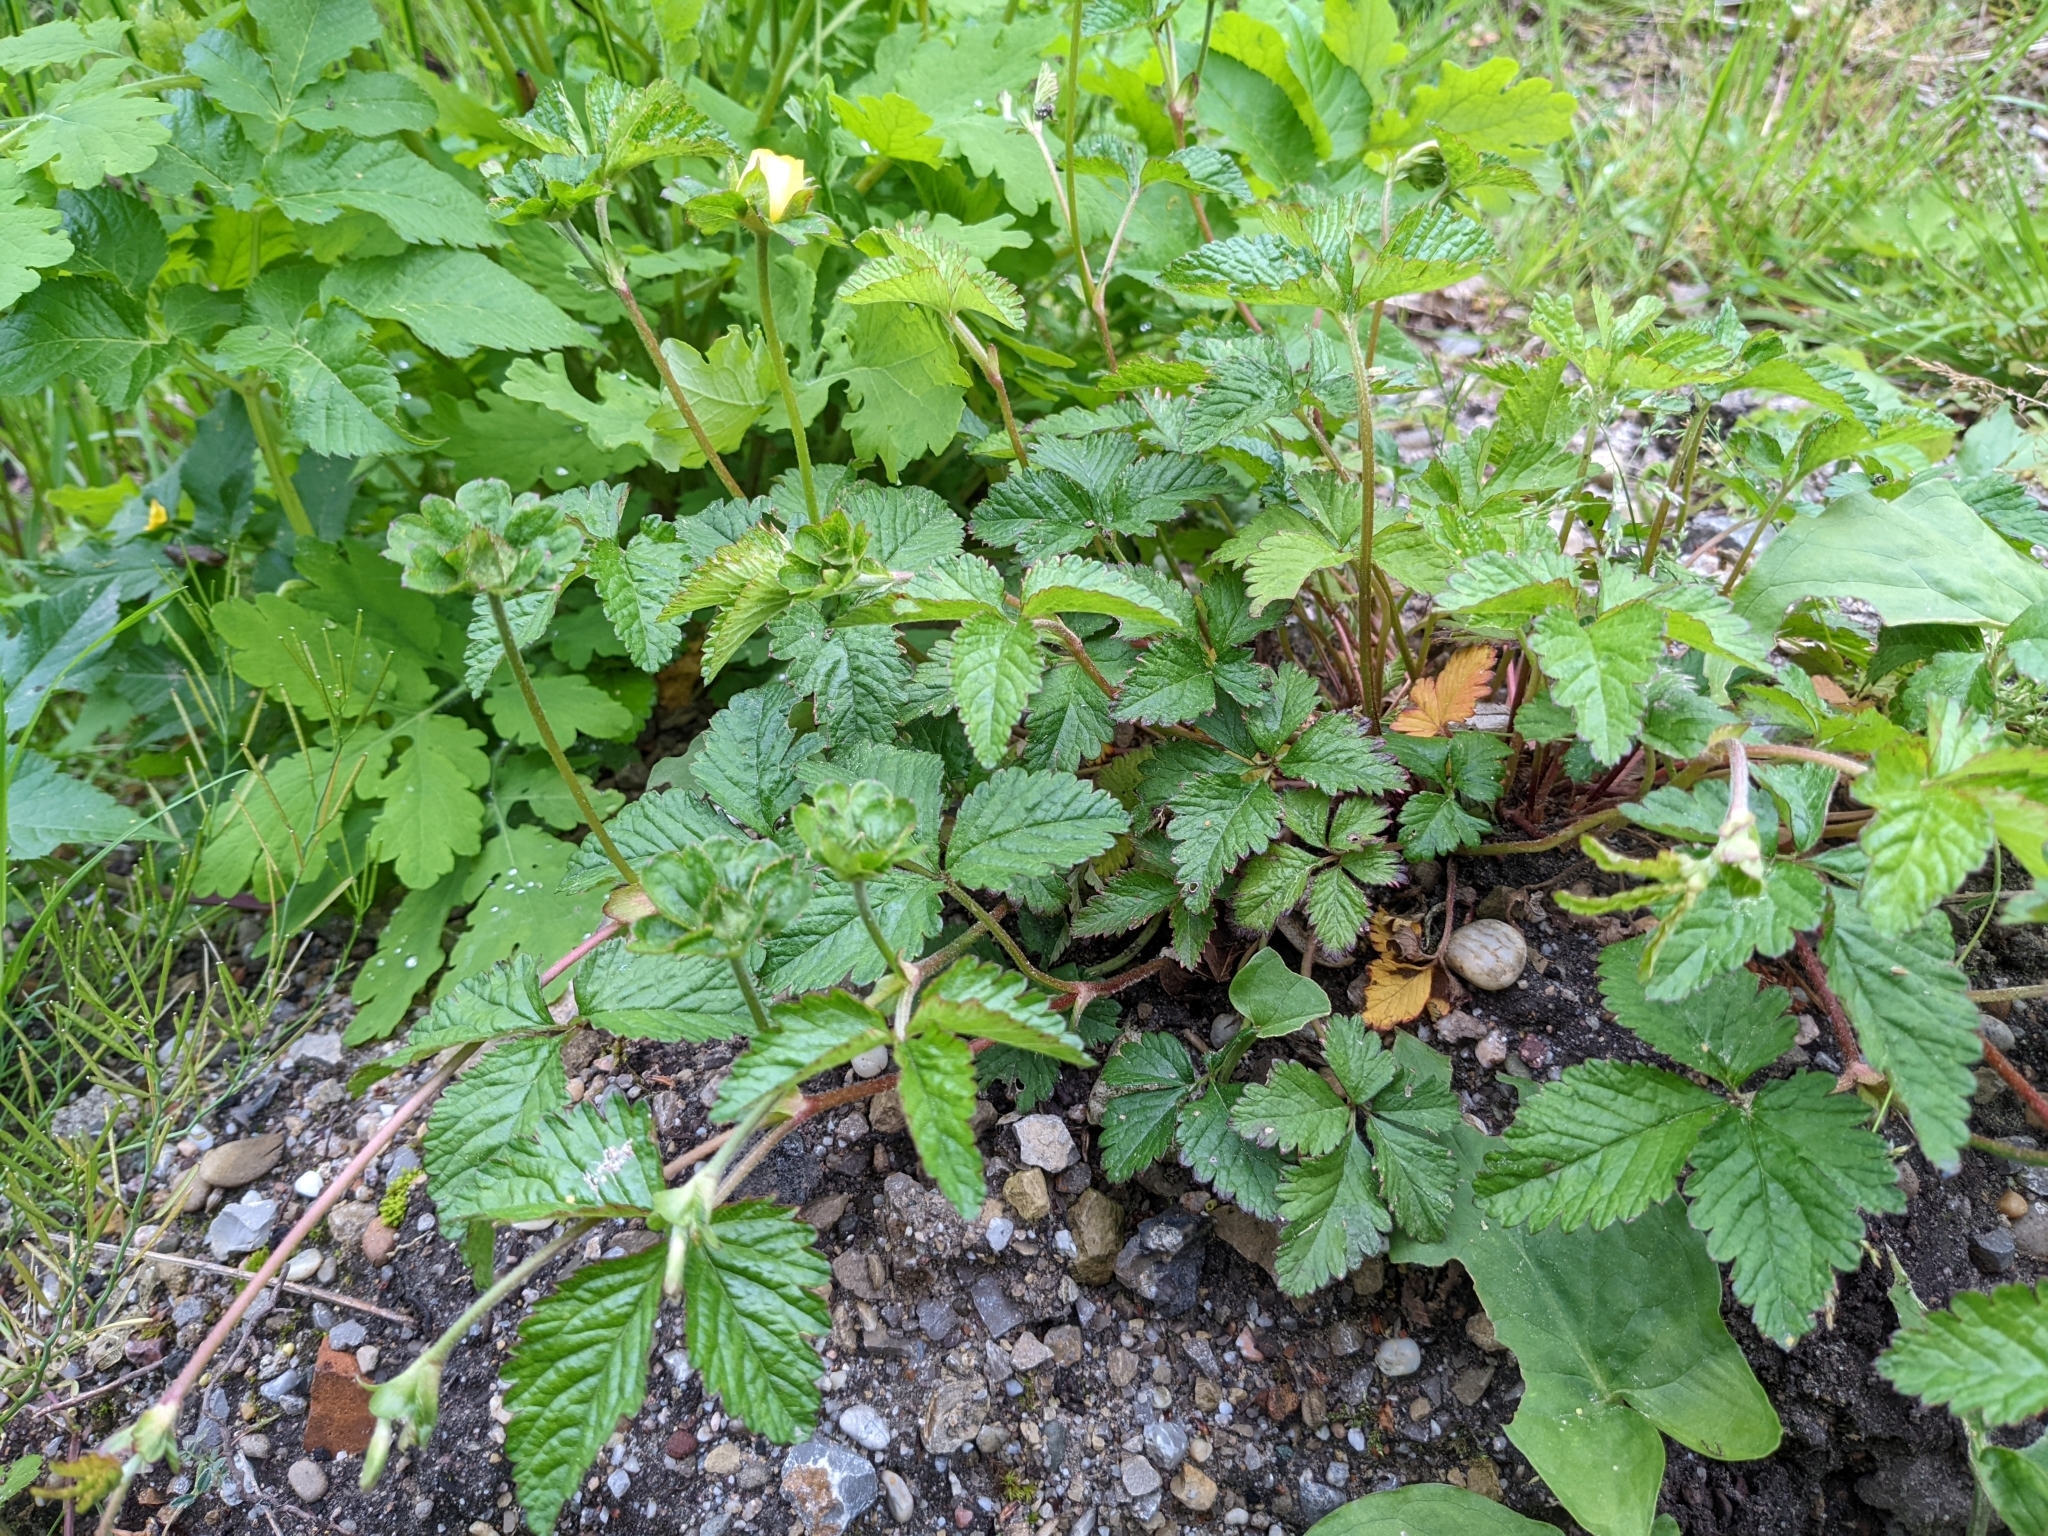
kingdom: Plantae
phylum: Tracheophyta
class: Magnoliopsida
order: Rosales
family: Rosaceae
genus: Potentilla
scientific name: Potentilla indica
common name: Yellow-flowered strawberry
